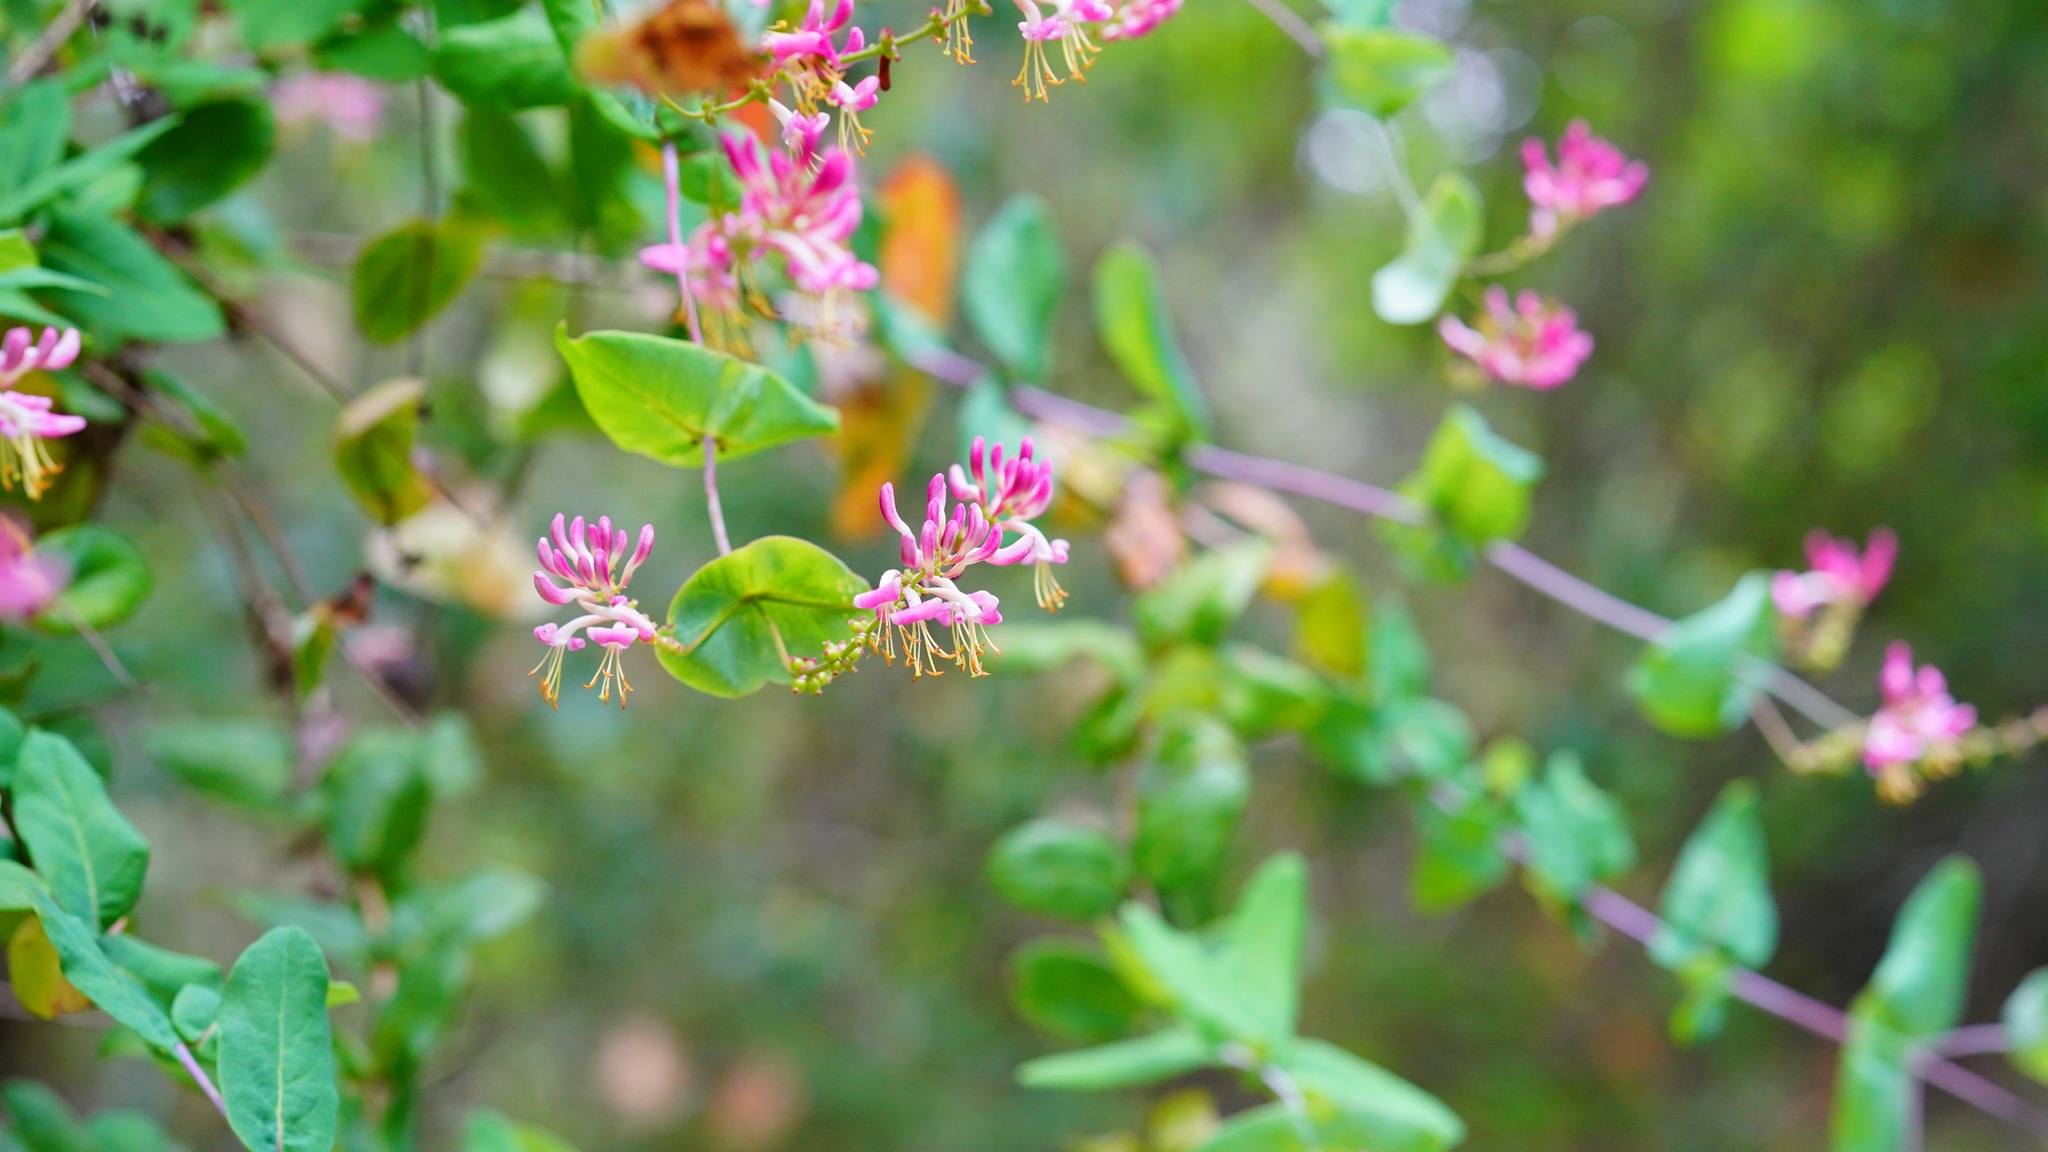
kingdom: Plantae
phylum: Tracheophyta
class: Magnoliopsida
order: Dipsacales
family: Caprifoliaceae
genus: Lonicera
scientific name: Lonicera hispidula
